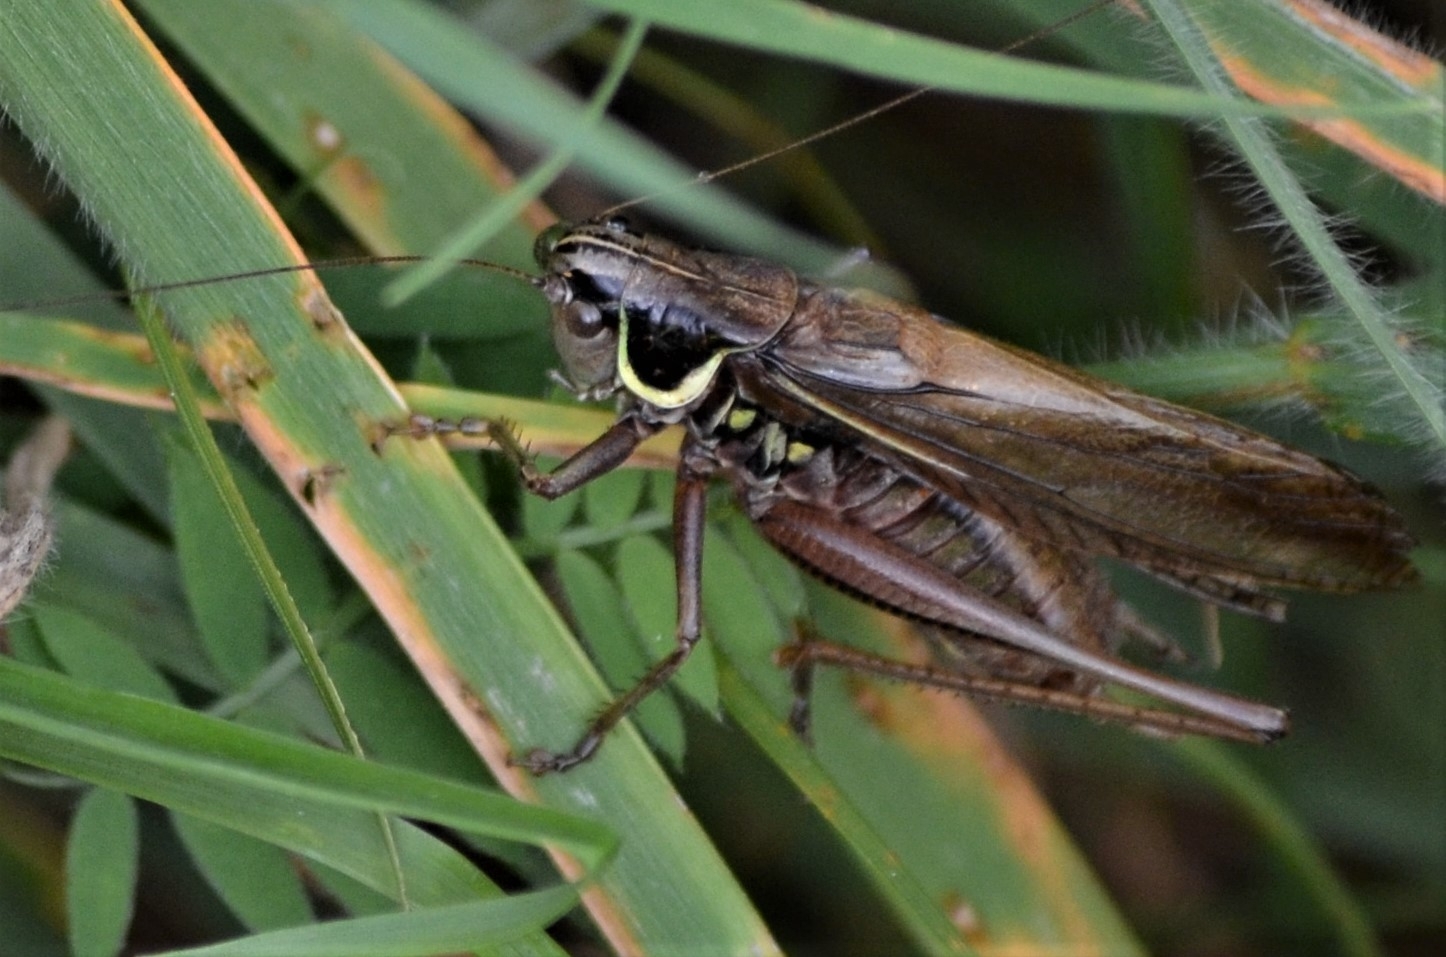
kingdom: Animalia
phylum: Arthropoda
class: Insecta
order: Orthoptera
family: Tettigoniidae
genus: Roeseliana
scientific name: Roeseliana roeselii
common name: Roesel's bush cricket
